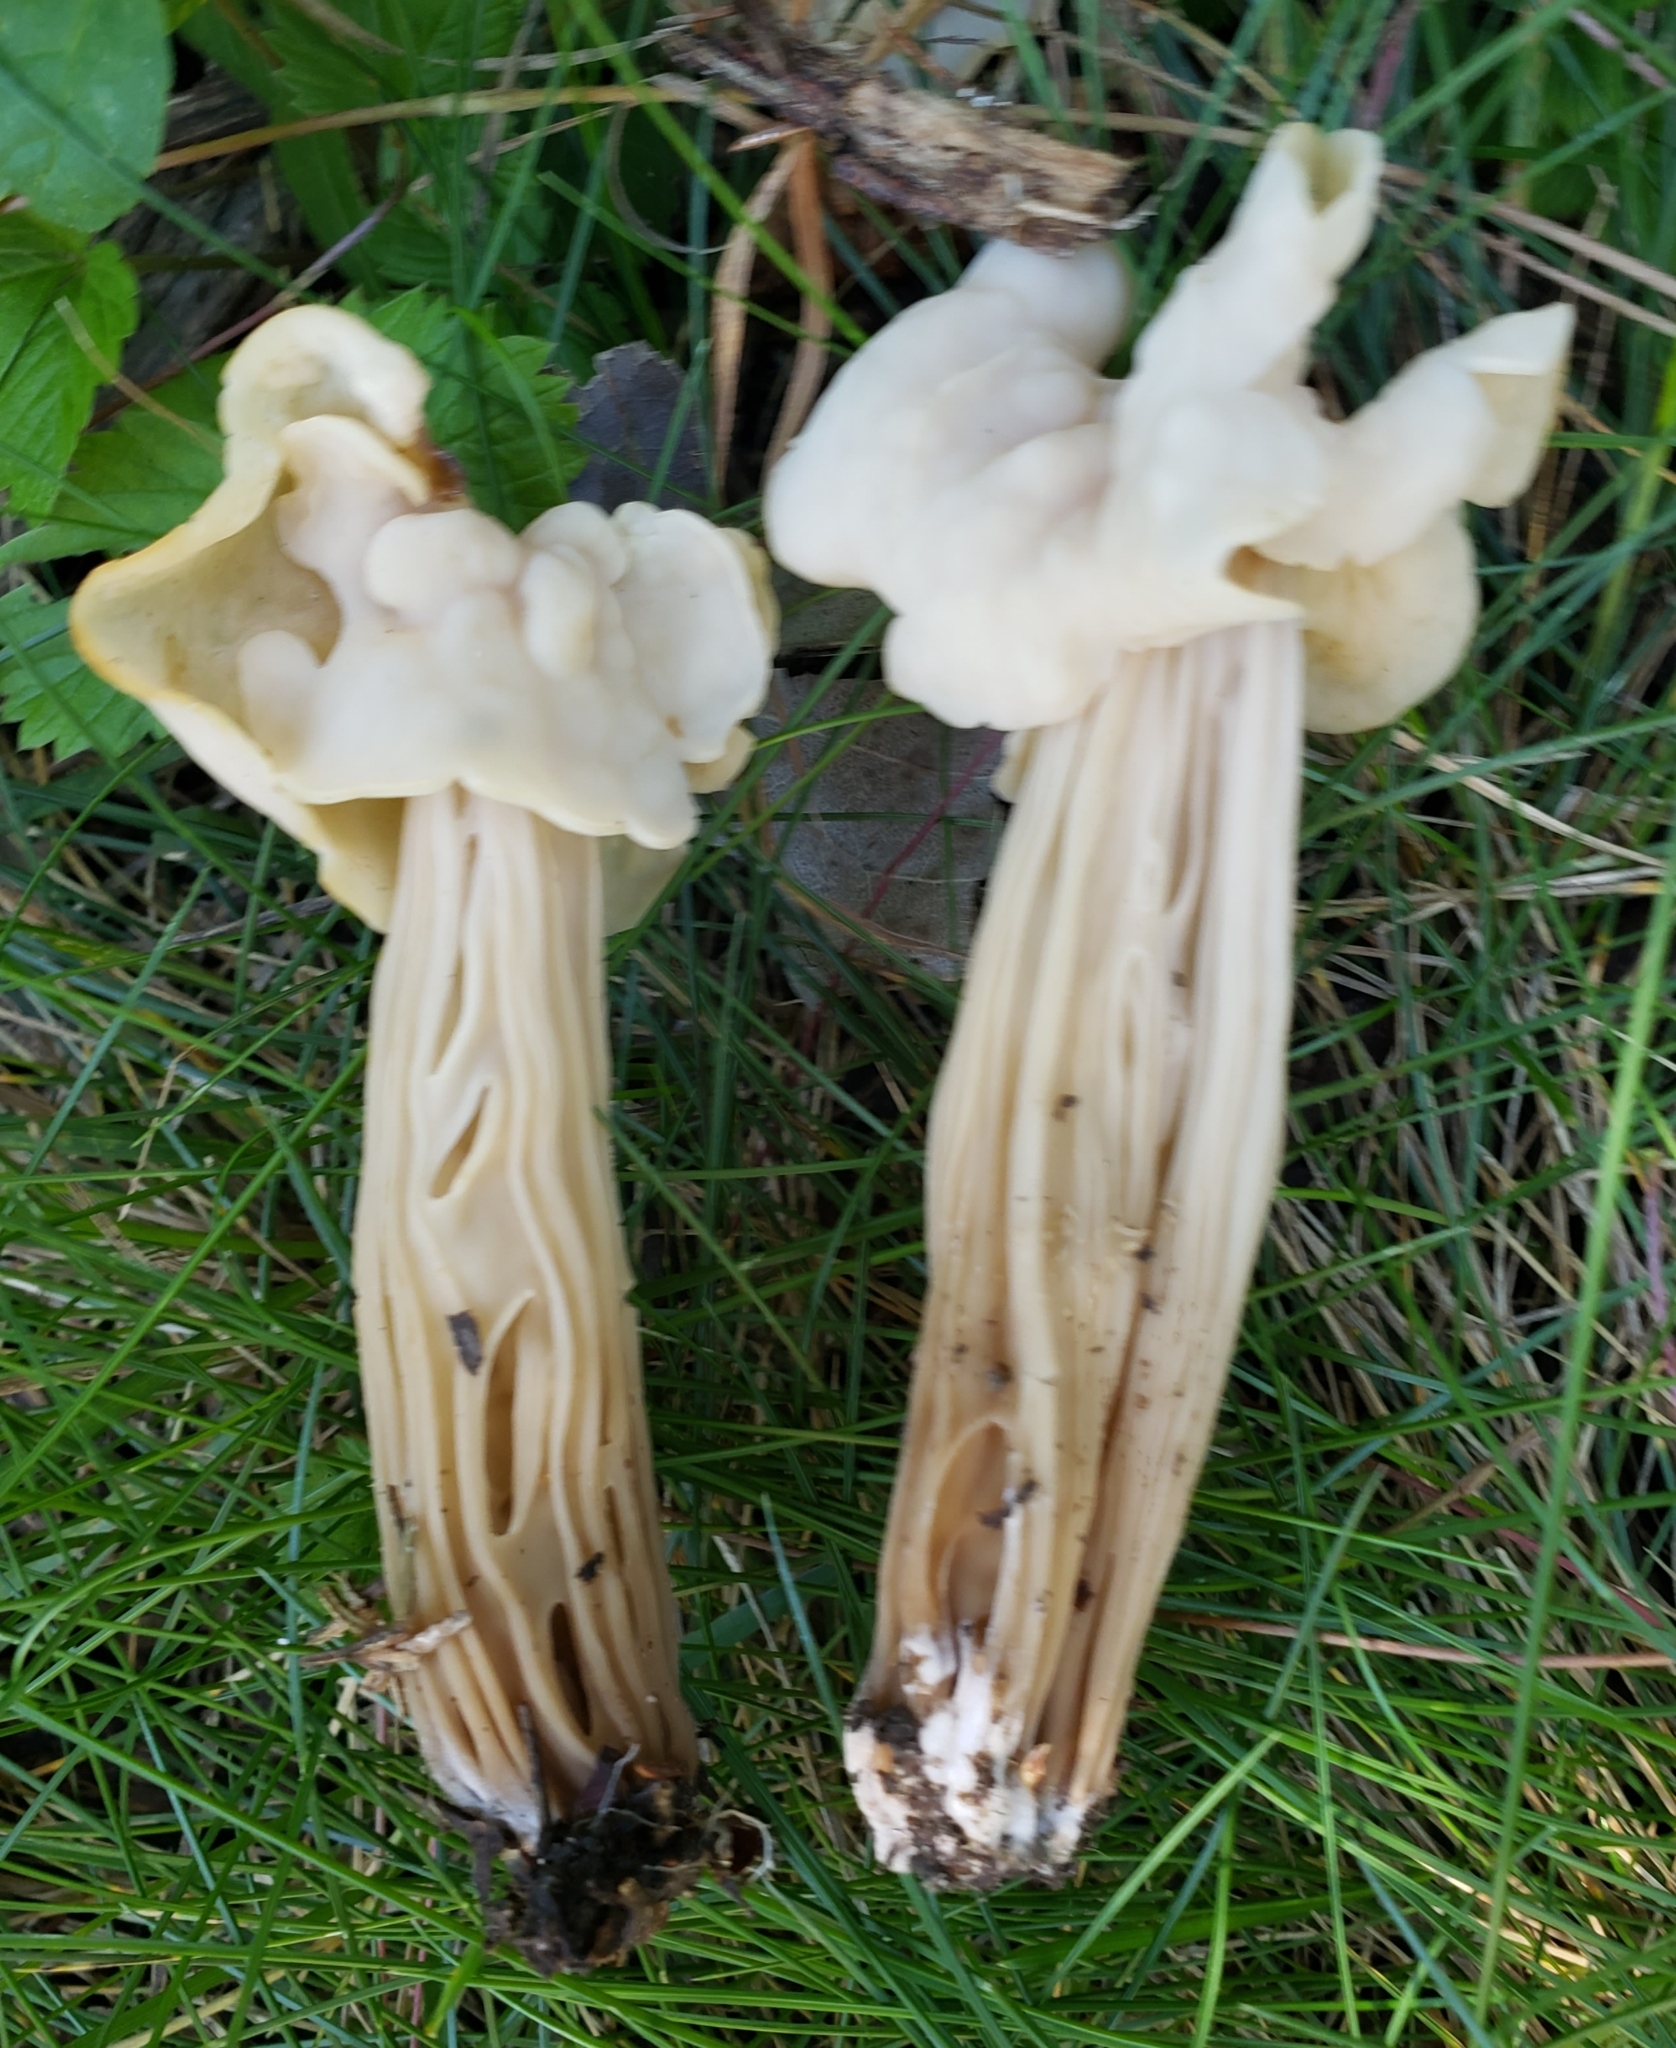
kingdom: Fungi
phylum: Ascomycota
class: Pezizomycetes
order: Pezizales
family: Helvellaceae
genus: Helvella
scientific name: Helvella crispa
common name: White saddle
